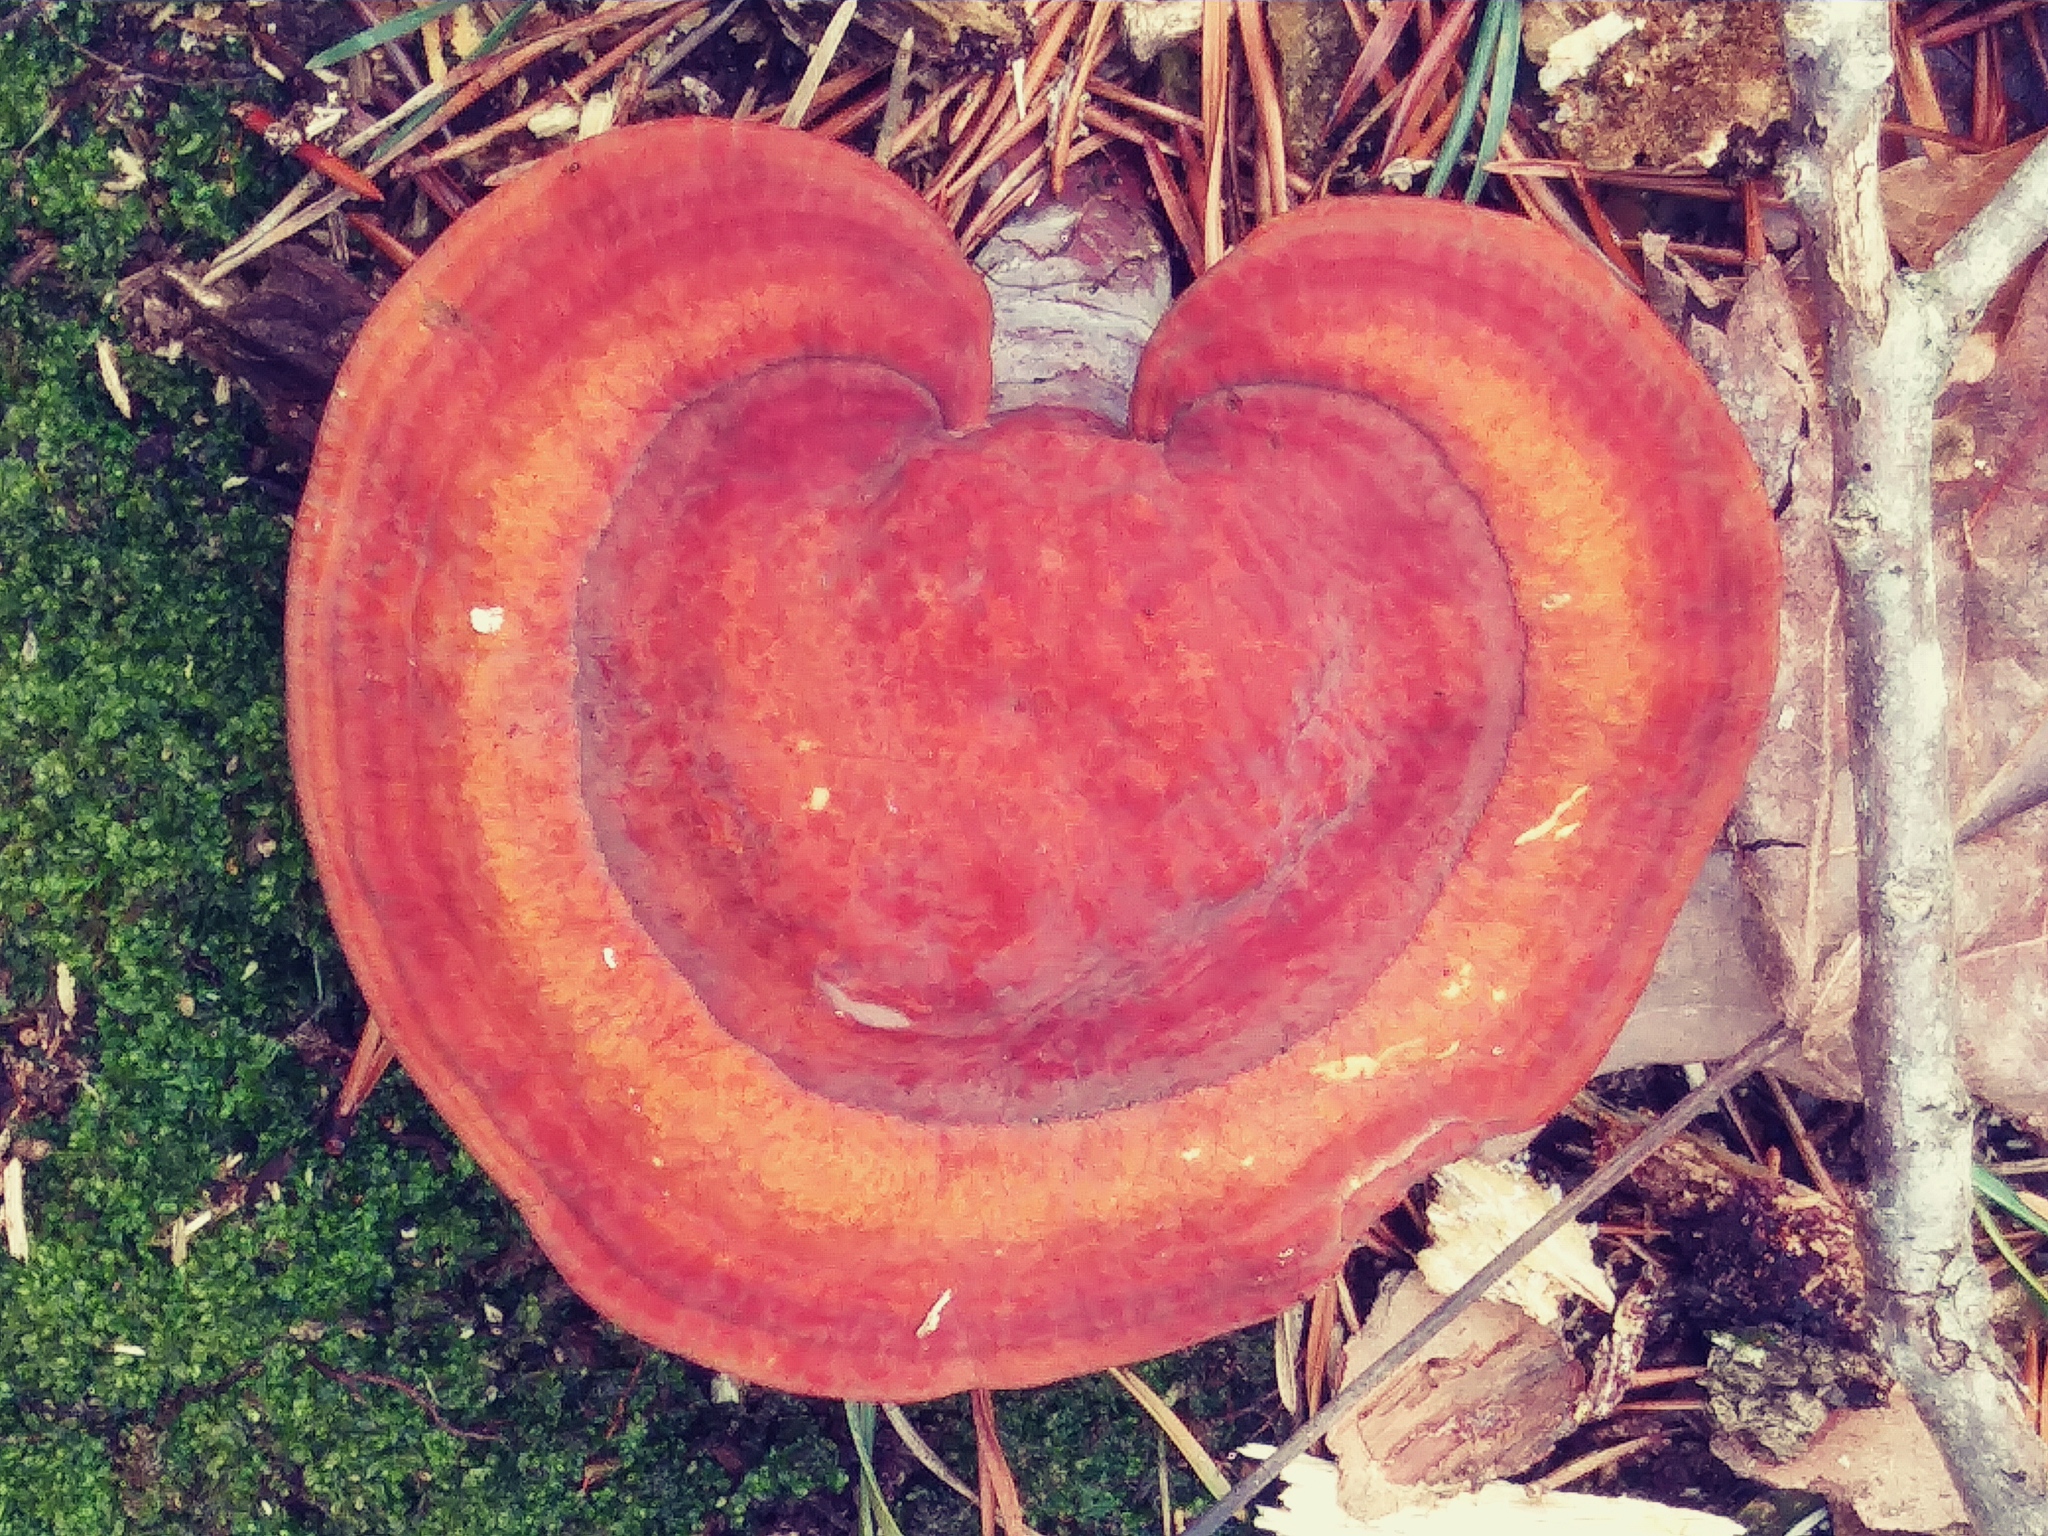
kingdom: Fungi
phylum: Basidiomycota
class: Agaricomycetes
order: Polyporales
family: Polyporaceae
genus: Ganoderma
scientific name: Ganoderma curtisii
